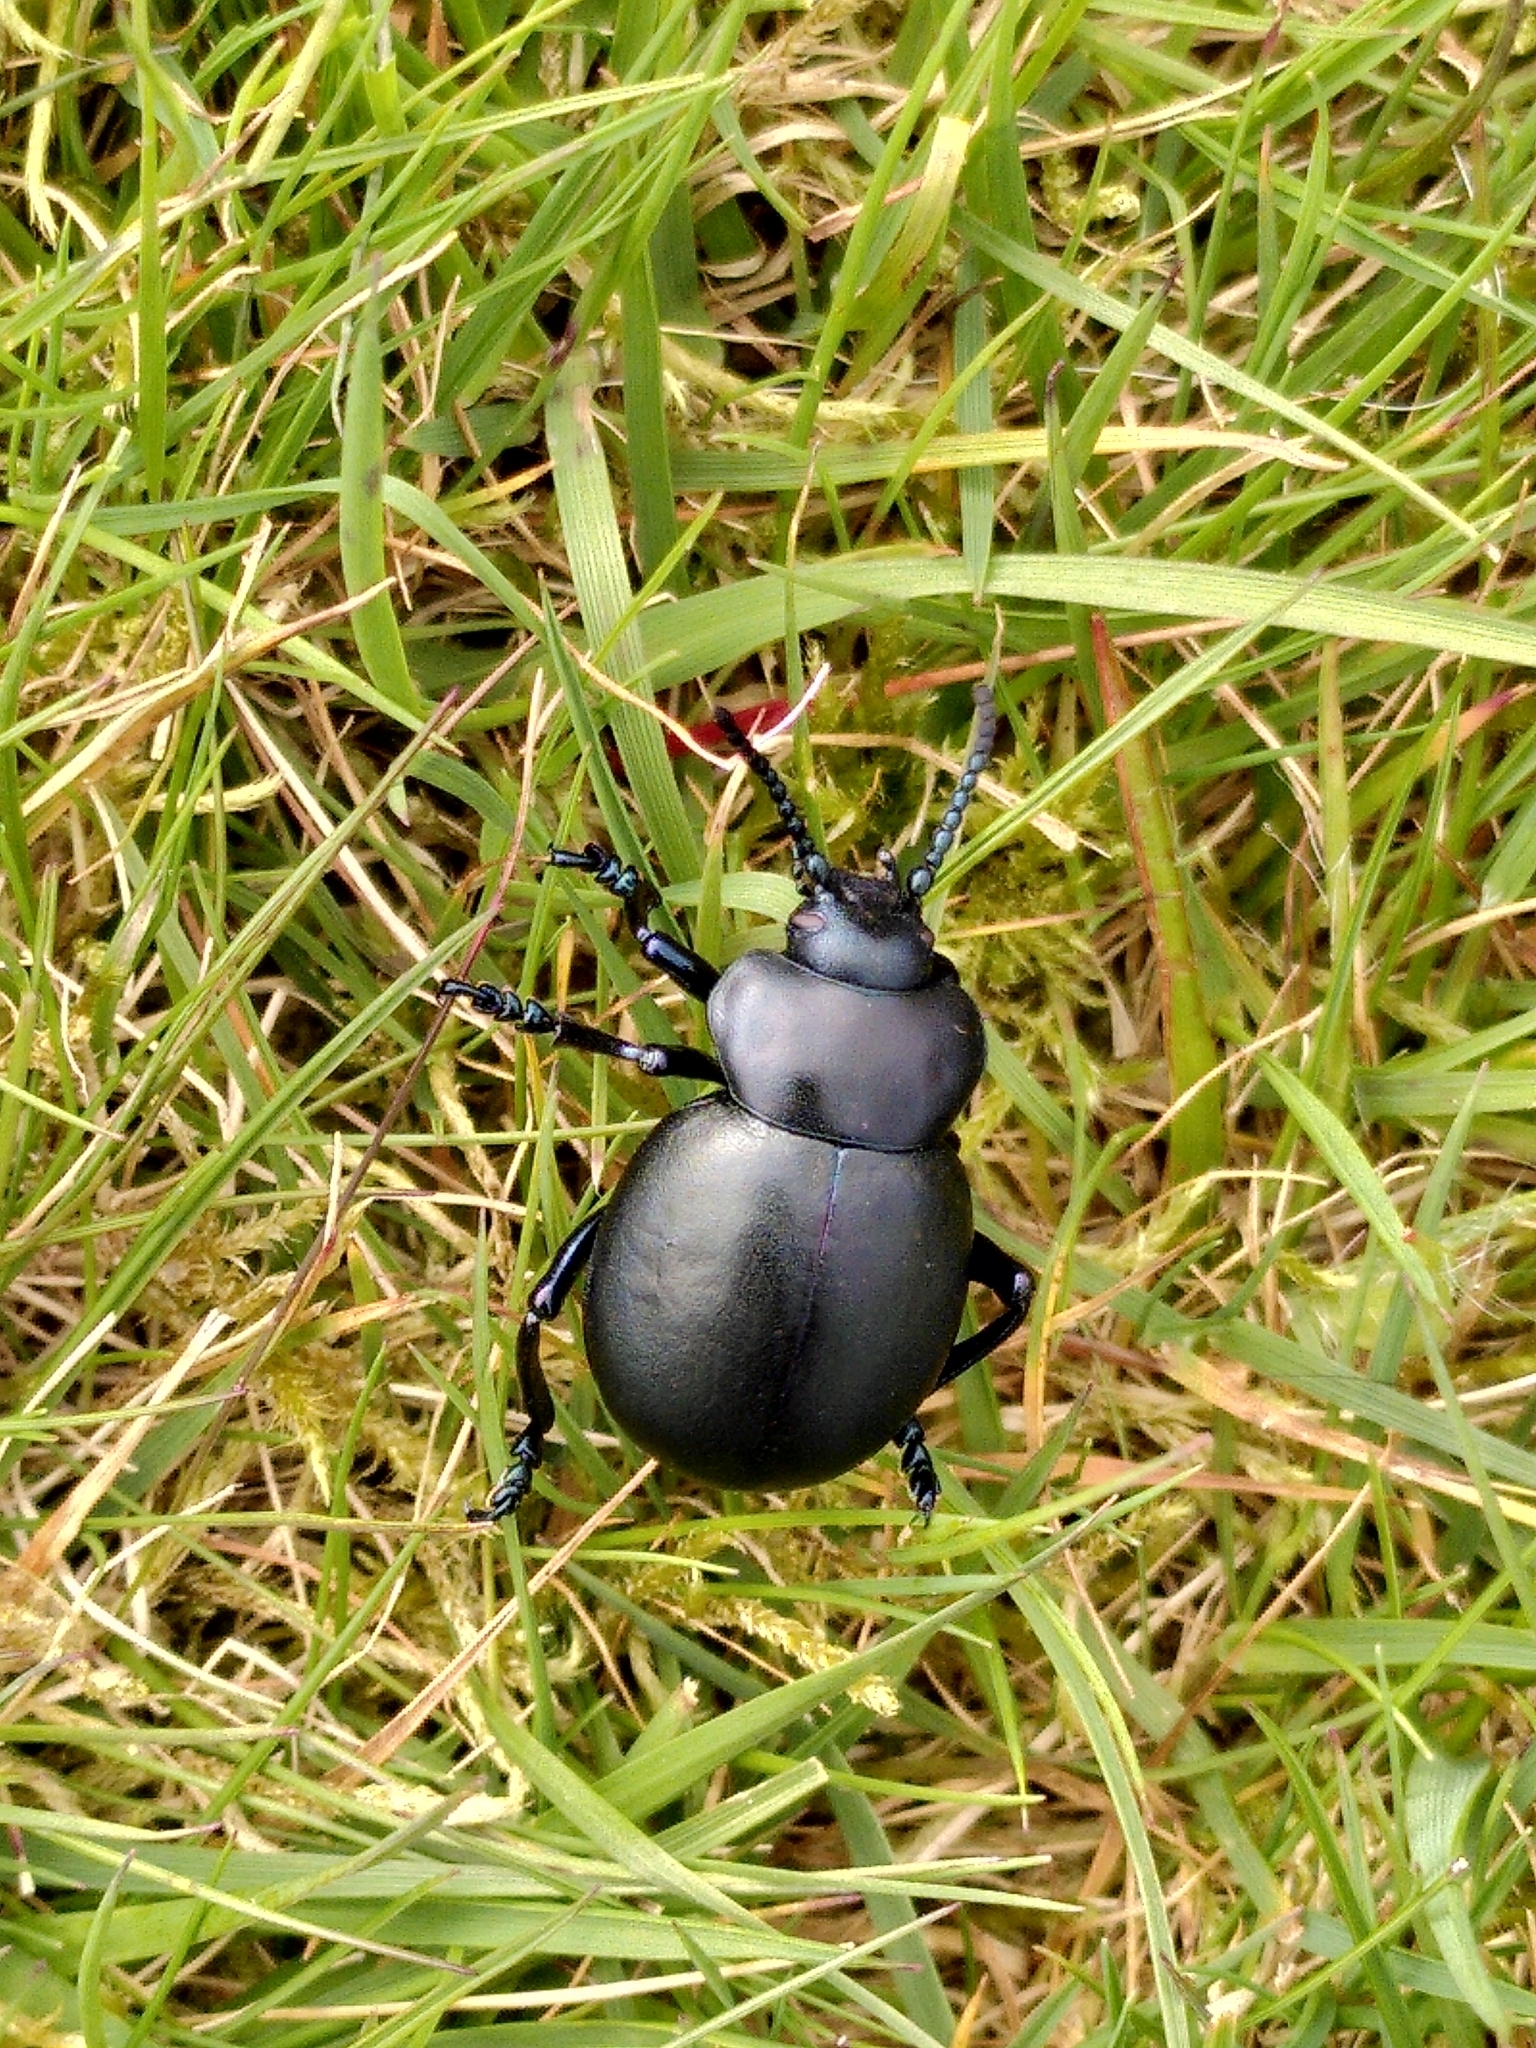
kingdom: Animalia
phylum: Arthropoda
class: Insecta
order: Coleoptera
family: Chrysomelidae
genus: Timarcha
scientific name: Timarcha tenebricosa
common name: Bloody-nosed beetle
